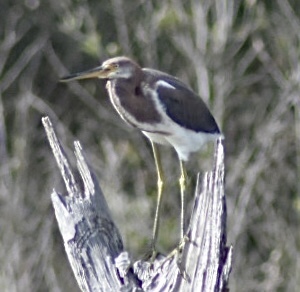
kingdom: Animalia
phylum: Chordata
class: Aves
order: Pelecaniformes
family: Ardeidae
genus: Egretta
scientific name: Egretta tricolor
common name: Tricolored heron
